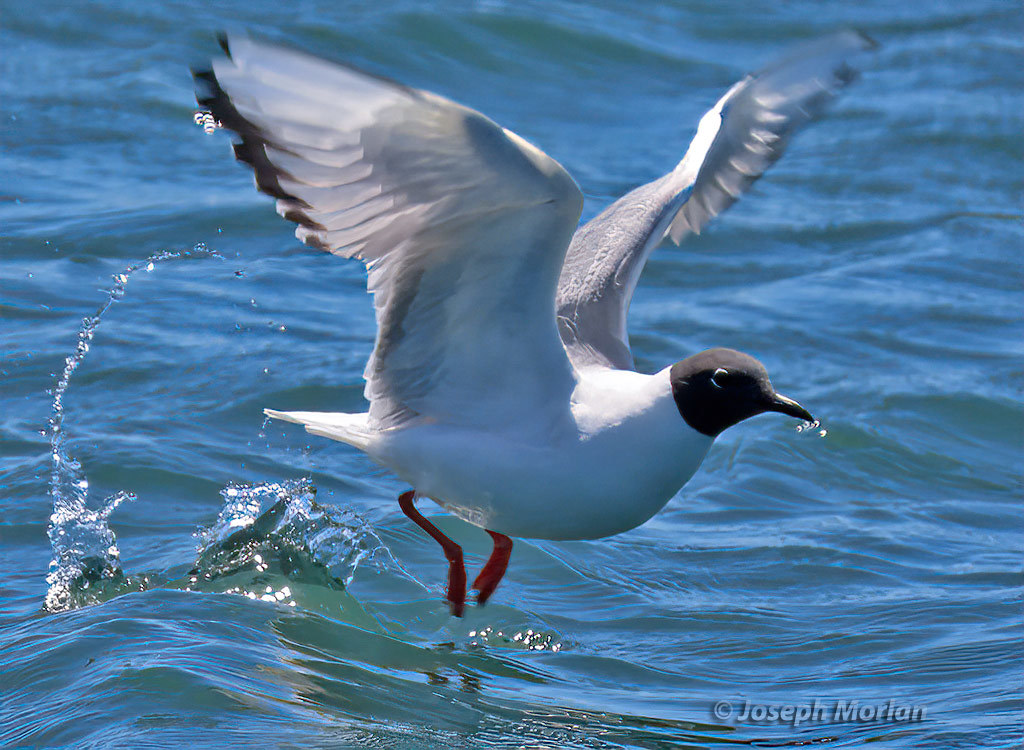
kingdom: Animalia
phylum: Chordata
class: Aves
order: Charadriiformes
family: Laridae
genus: Chroicocephalus
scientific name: Chroicocephalus philadelphia
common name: Bonaparte's gull
